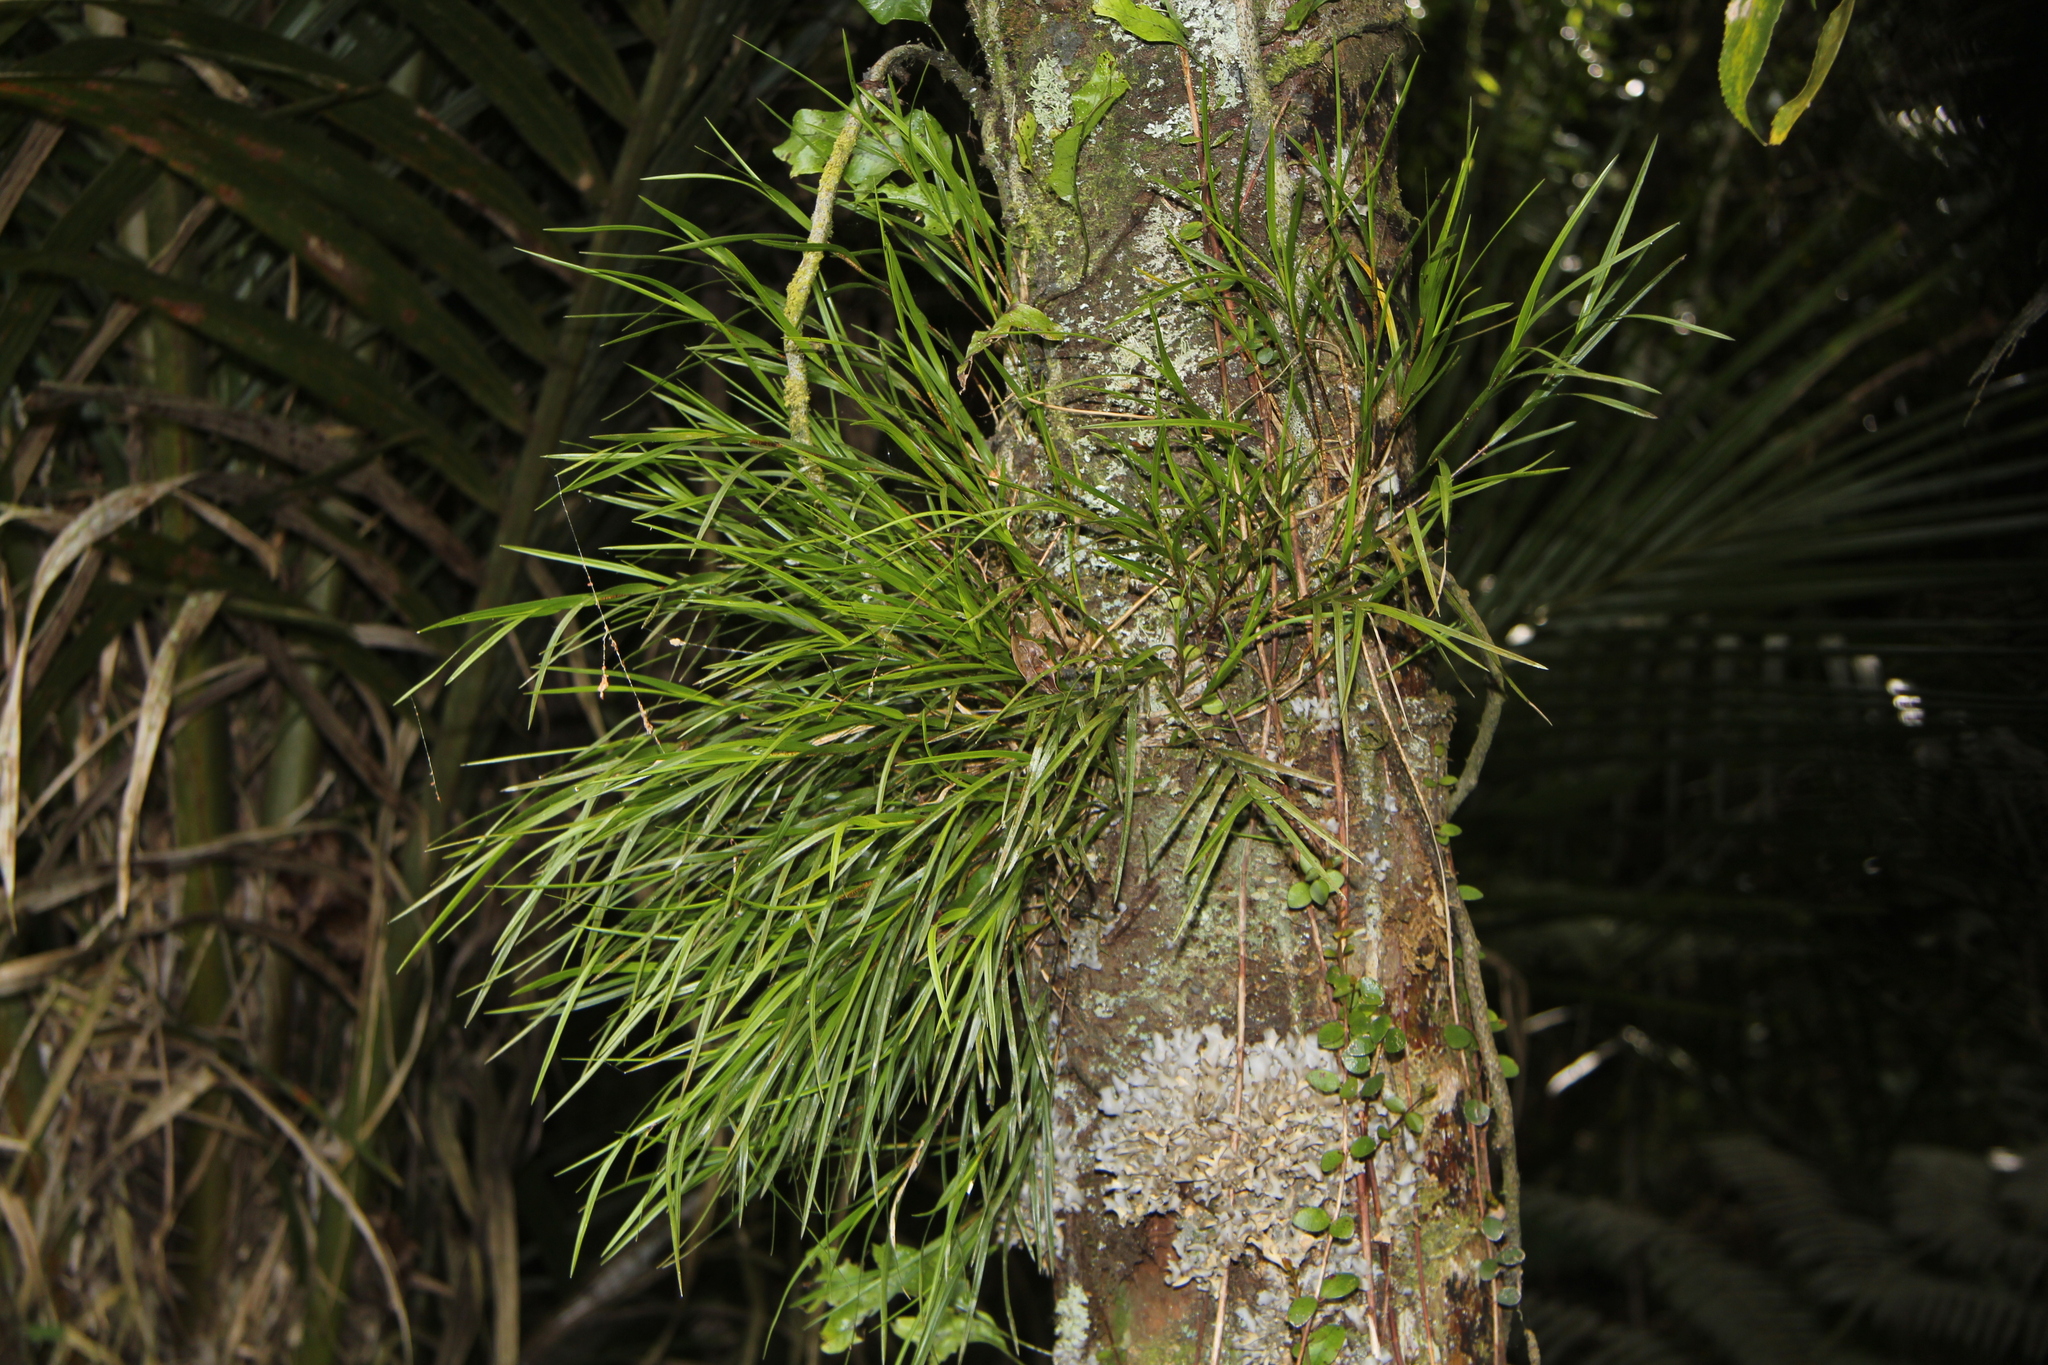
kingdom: Plantae
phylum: Tracheophyta
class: Liliopsida
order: Asparagales
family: Orchidaceae
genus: Earina
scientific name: Earina mucronata
